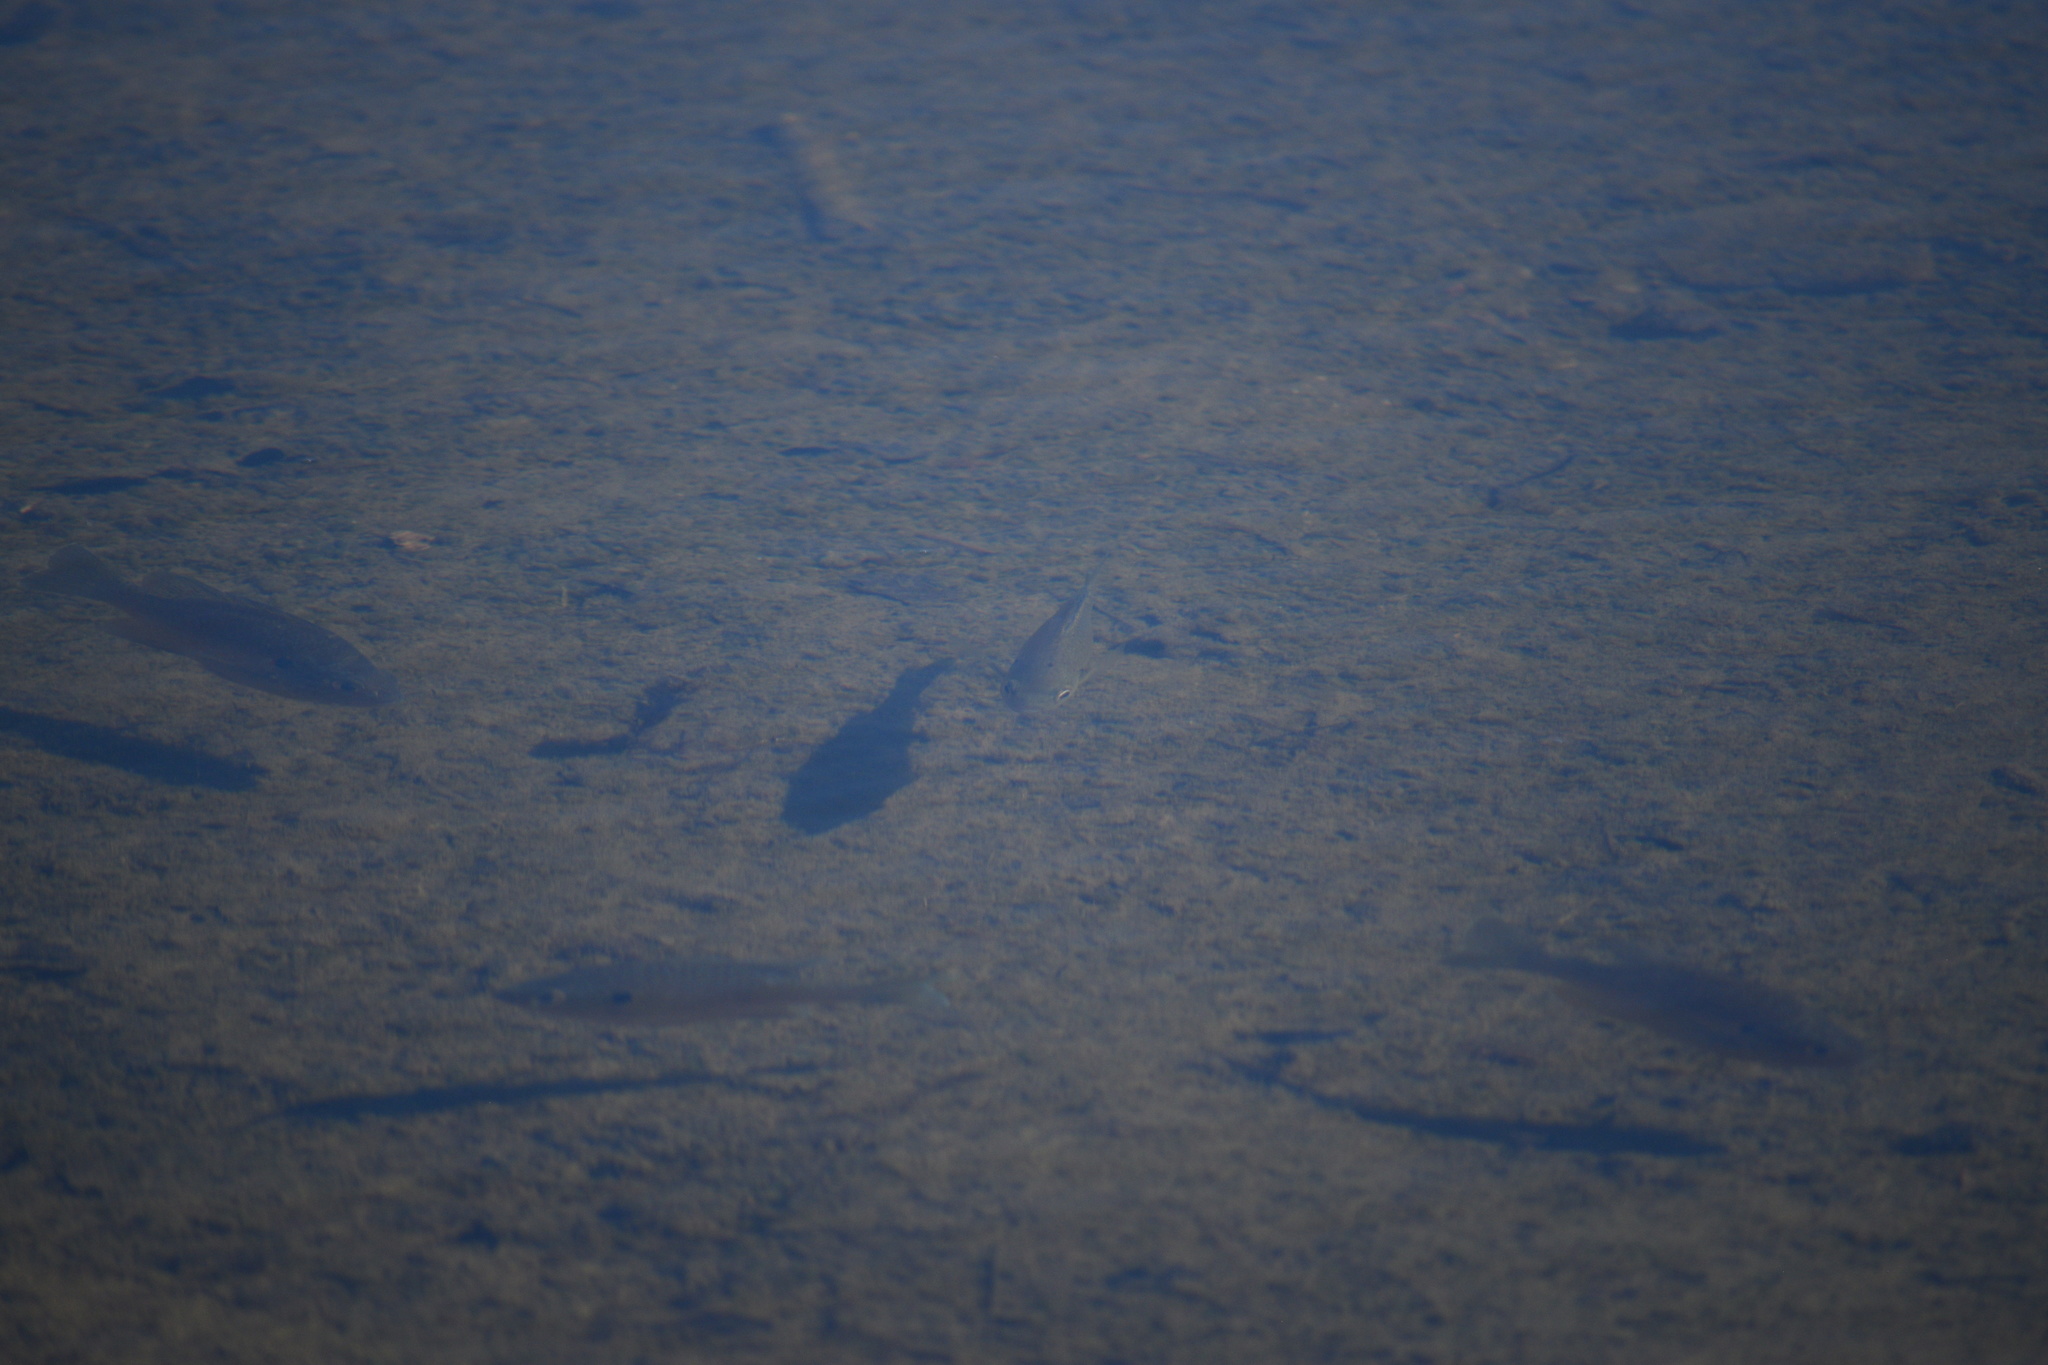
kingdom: Animalia
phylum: Chordata
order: Perciformes
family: Centrarchidae
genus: Lepomis
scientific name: Lepomis gibbosus
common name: Pumpkinseed
